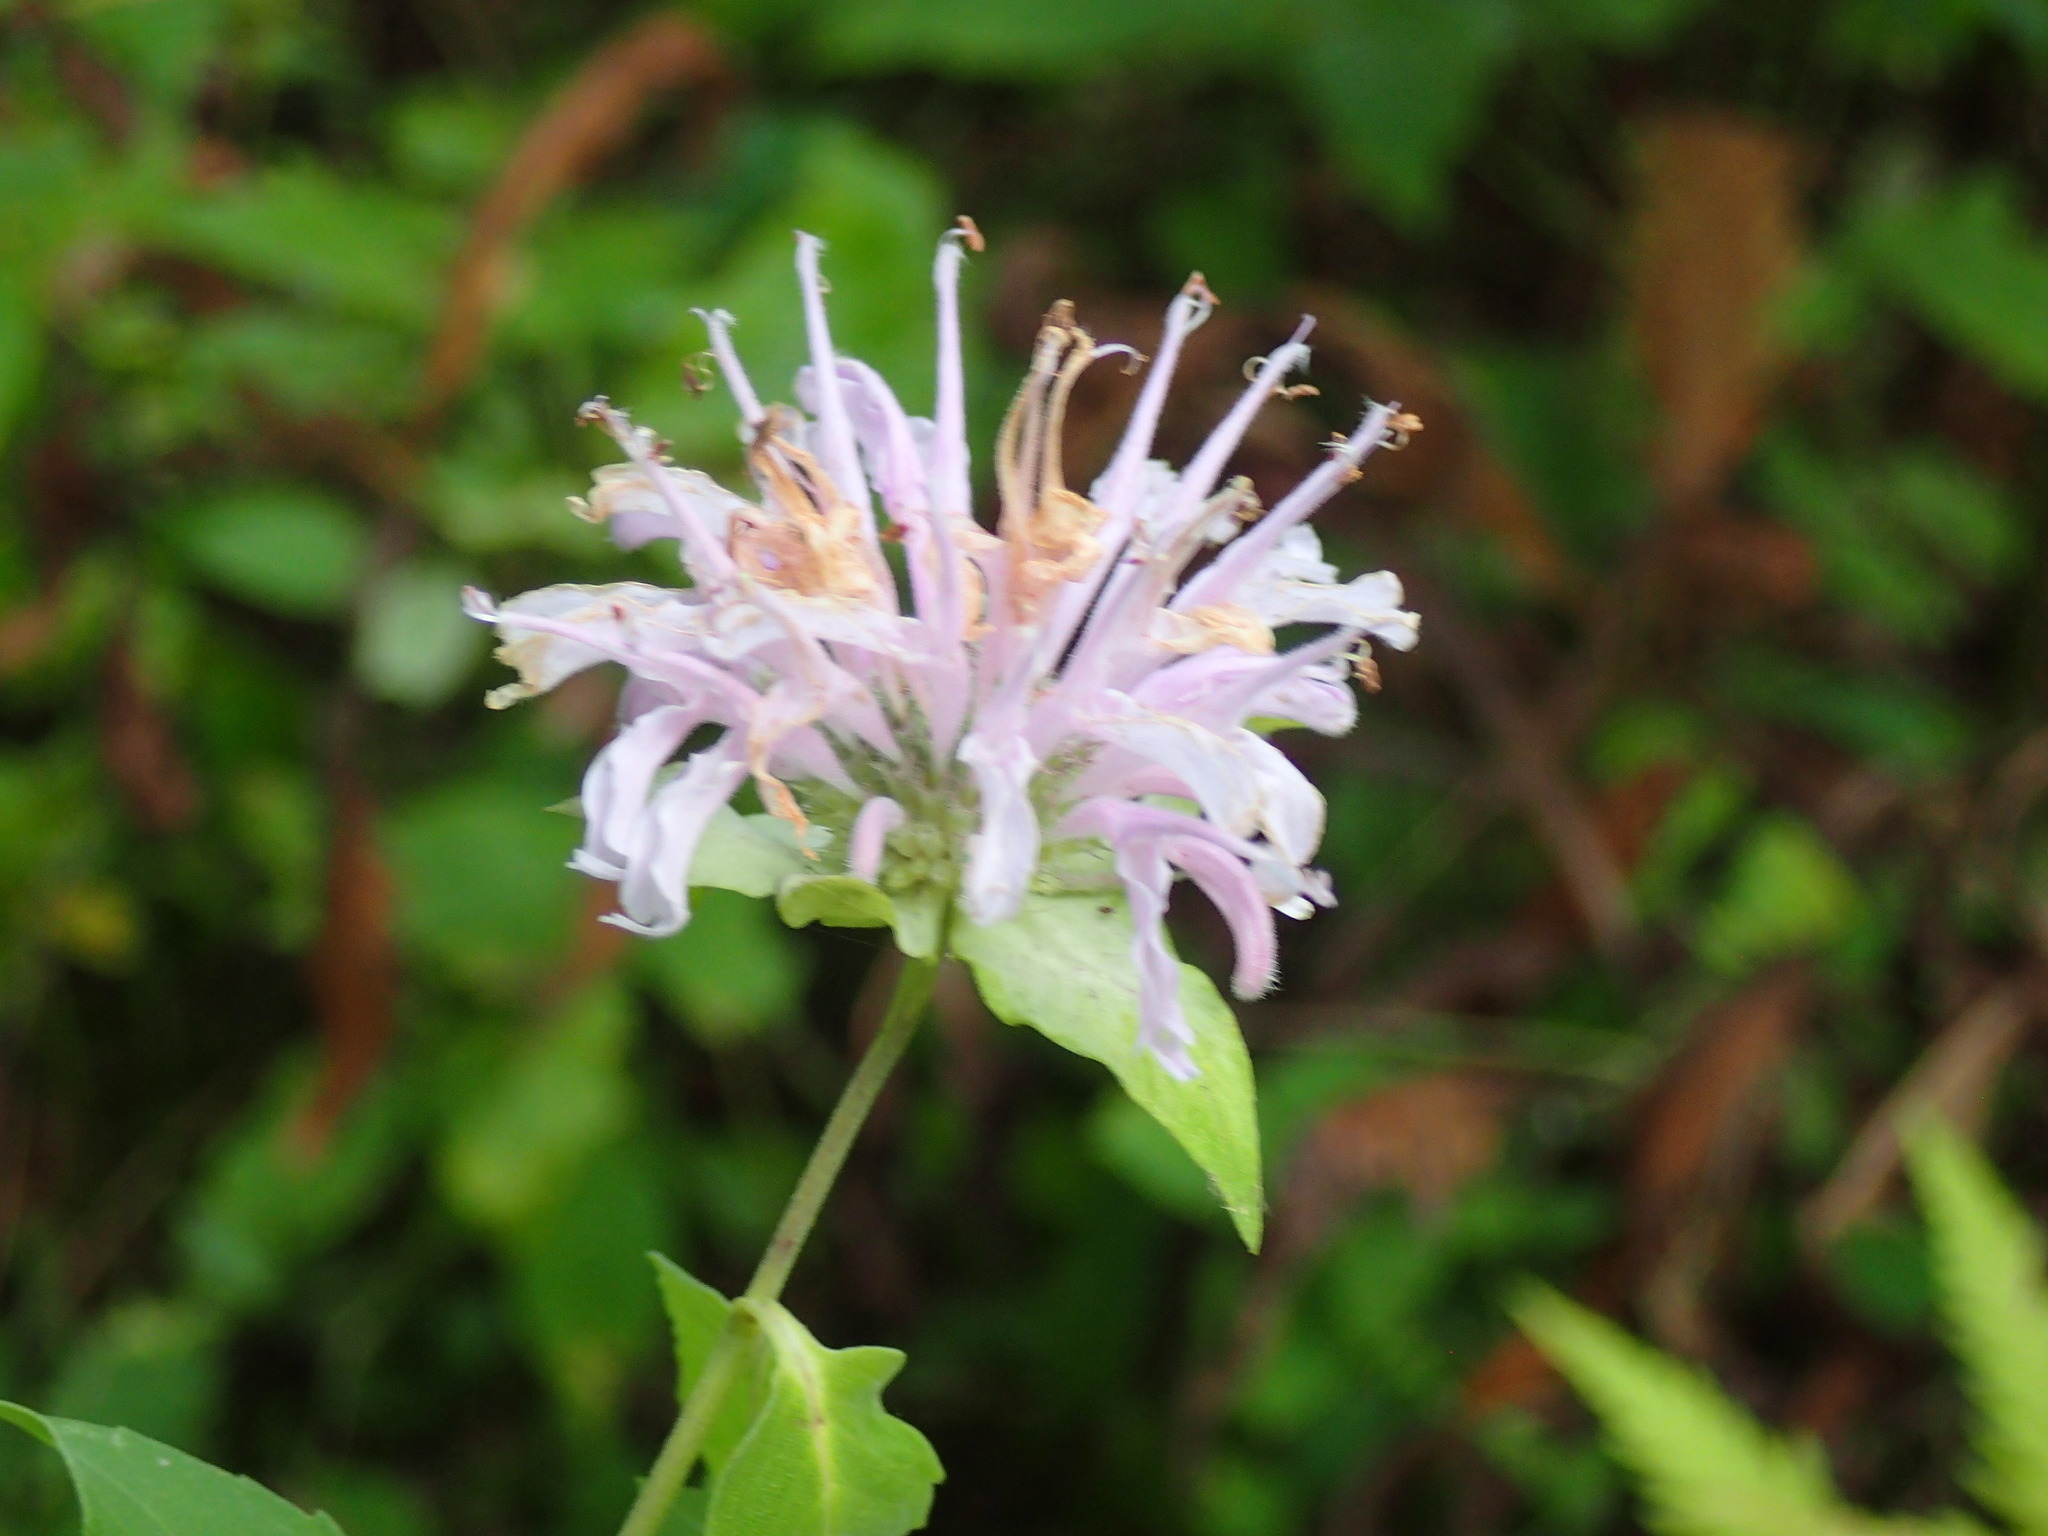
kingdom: Plantae
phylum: Tracheophyta
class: Magnoliopsida
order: Lamiales
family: Lamiaceae
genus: Monarda
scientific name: Monarda fistulosa
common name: Purple beebalm
